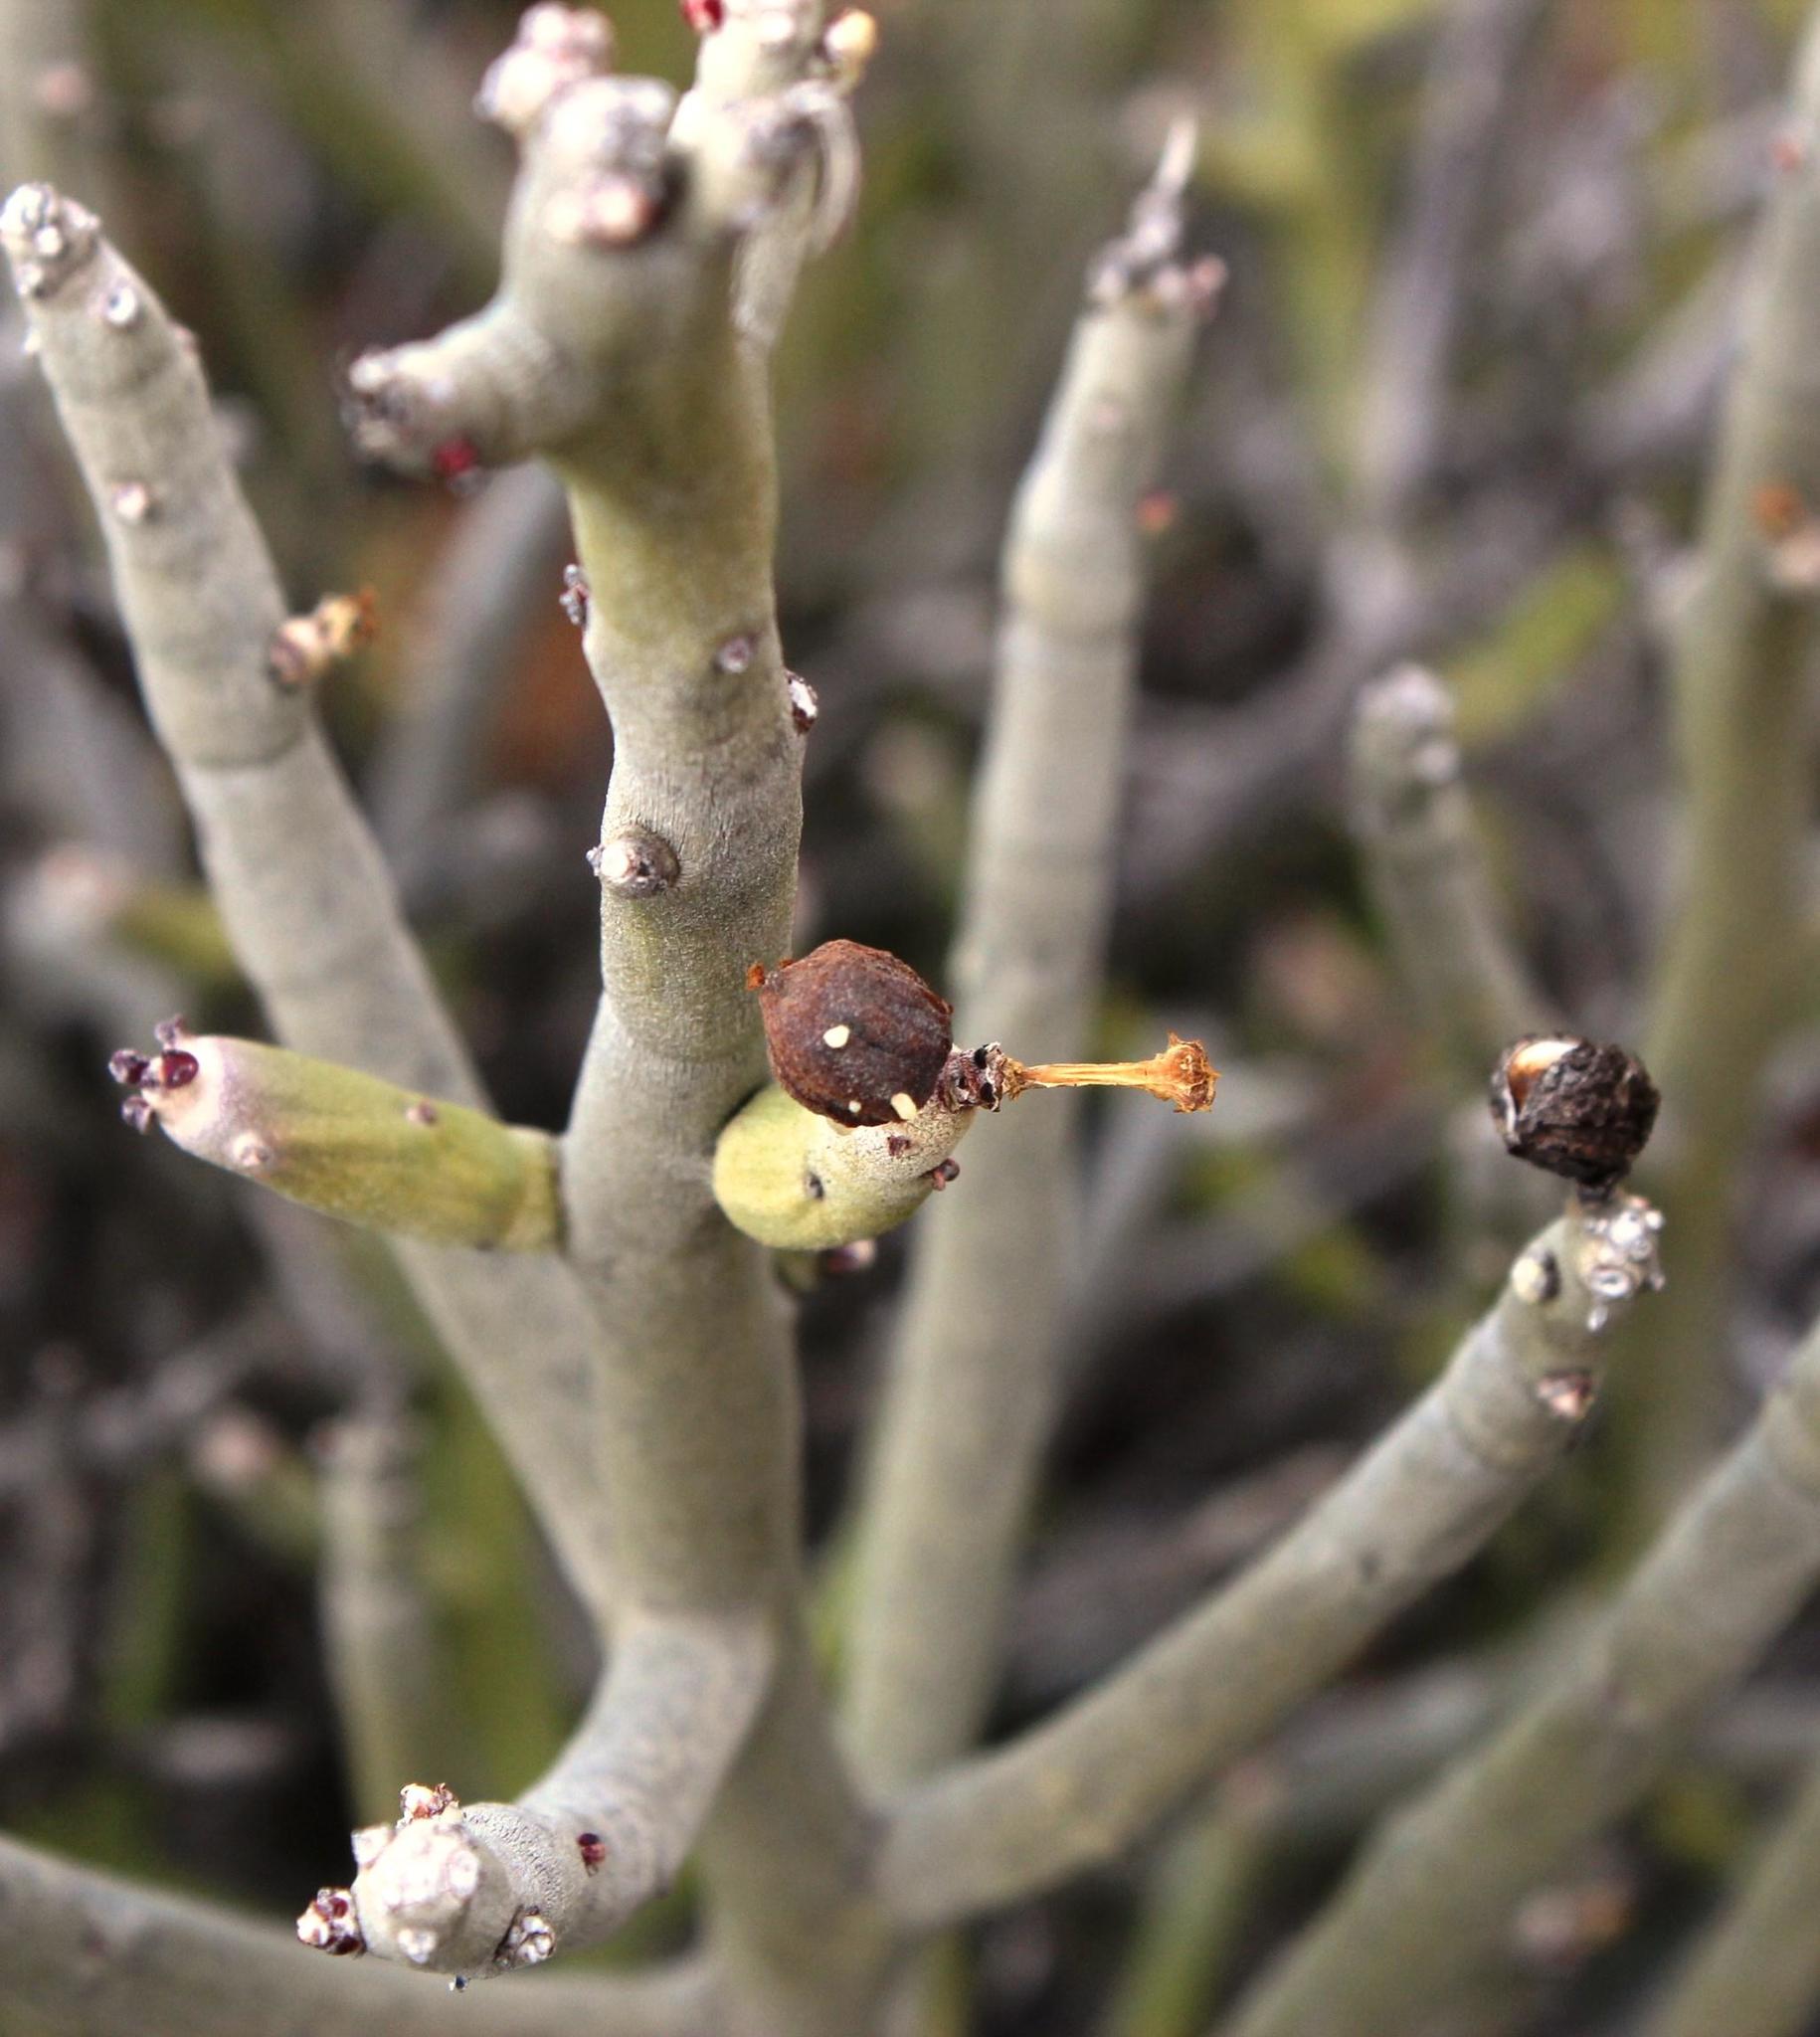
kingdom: Plantae
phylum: Tracheophyta
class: Magnoliopsida
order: Malpighiales
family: Euphorbiaceae
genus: Euphorbia
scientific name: Euphorbia gummifera
